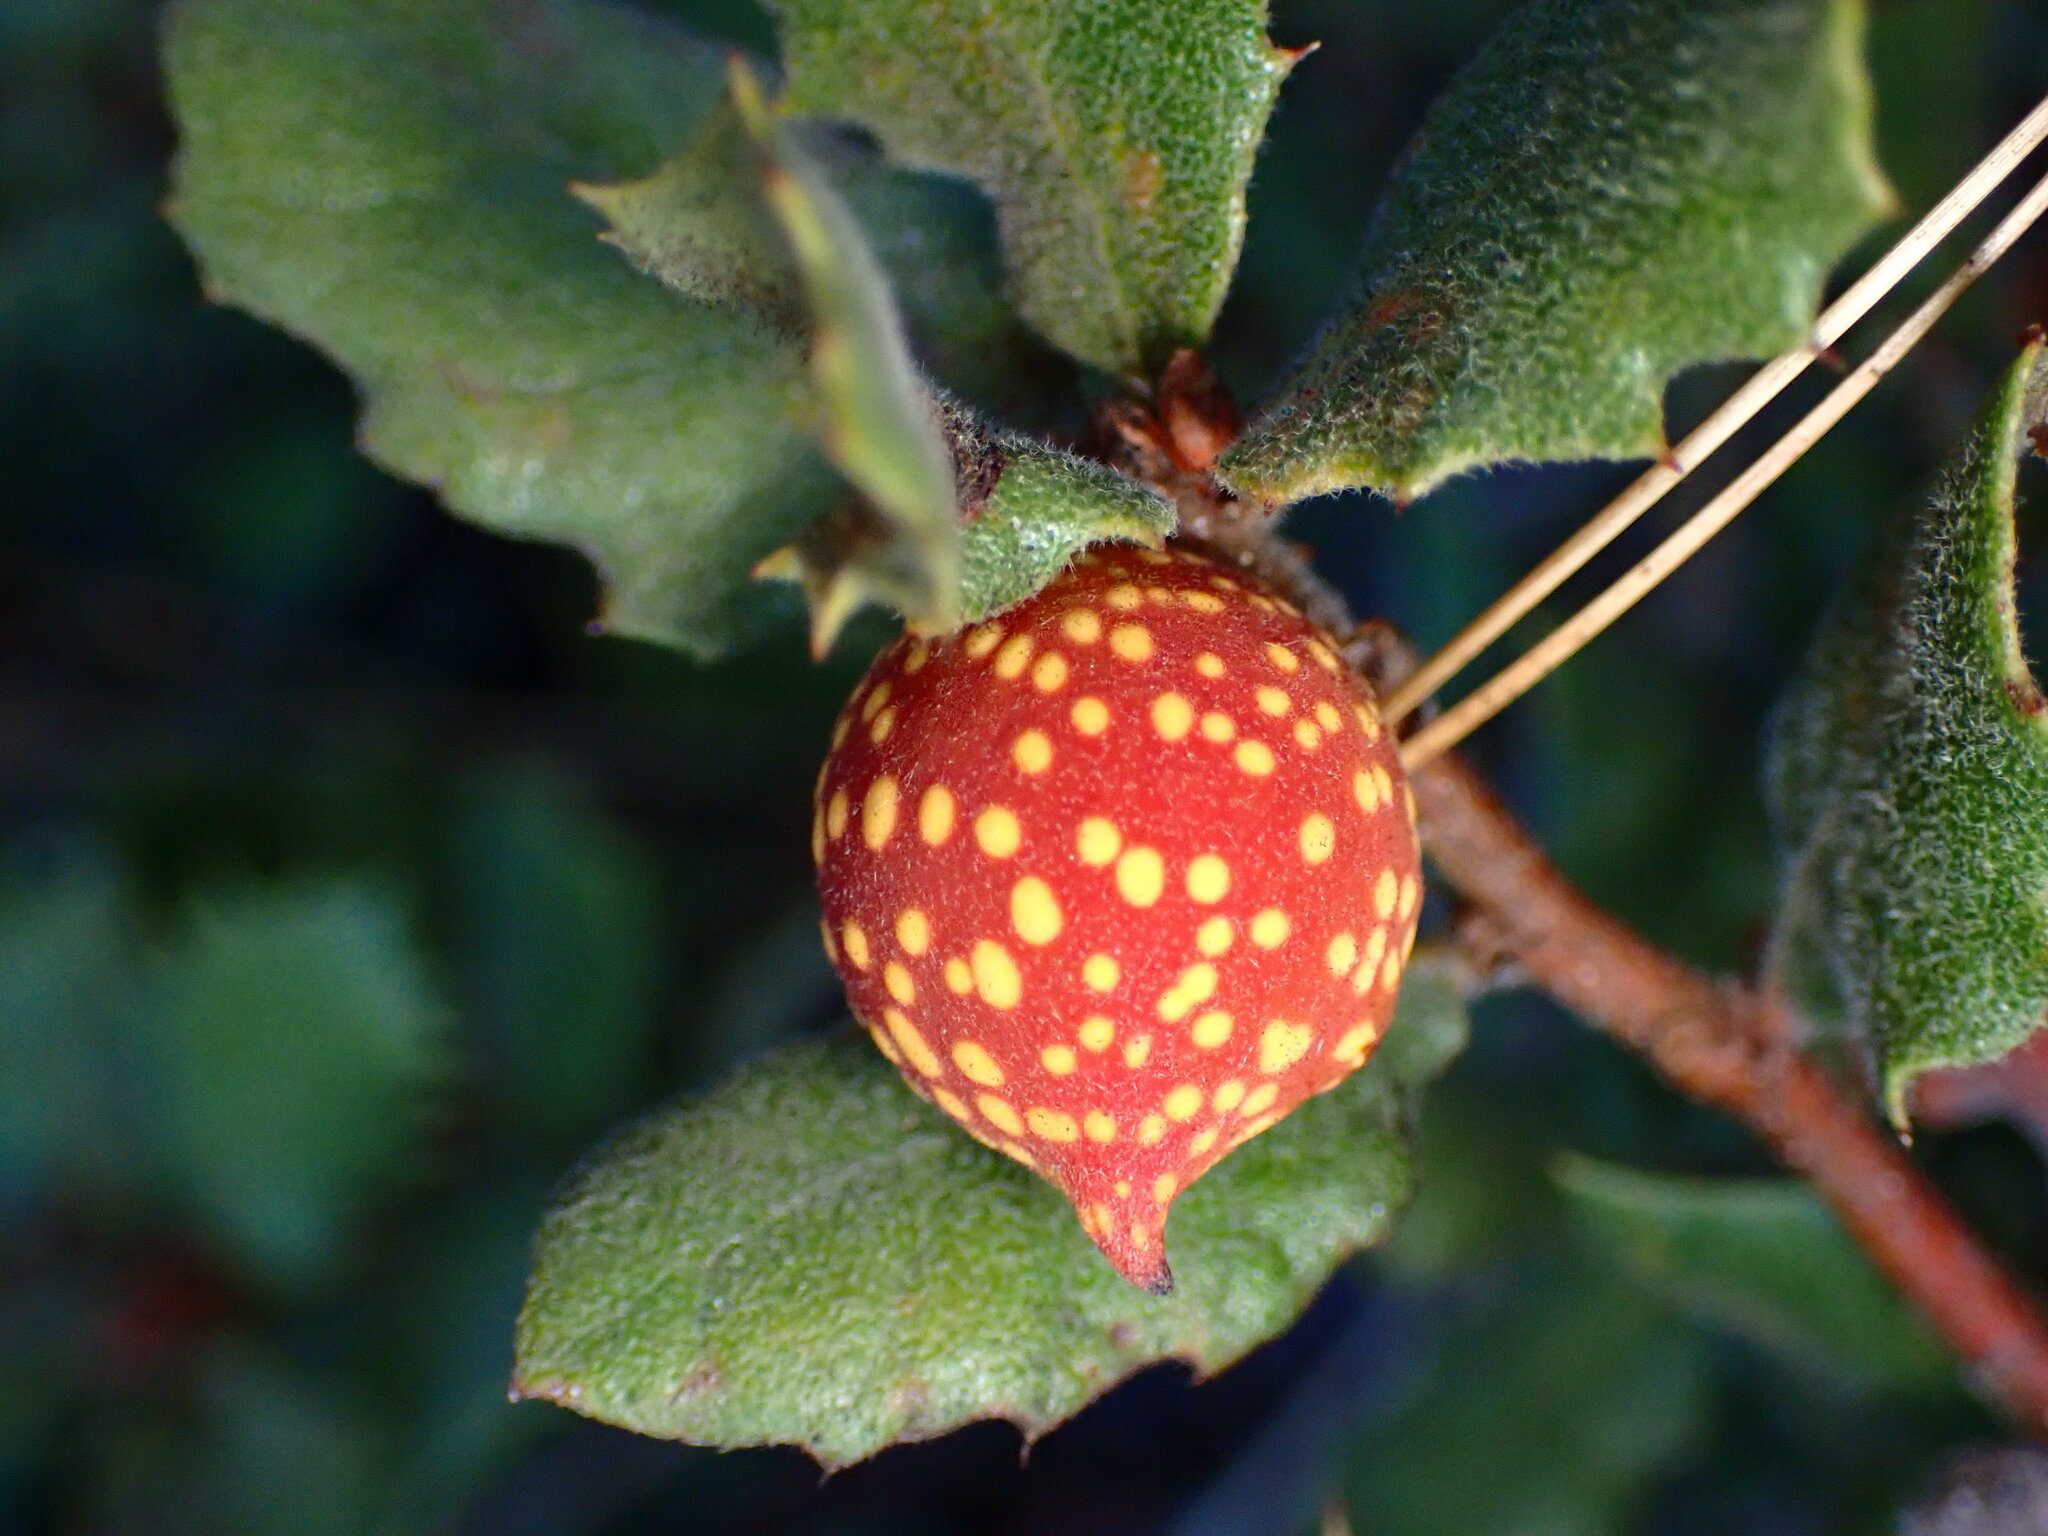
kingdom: Animalia
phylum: Arthropoda
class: Insecta
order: Hymenoptera
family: Cynipidae
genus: Burnettweldia
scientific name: Burnettweldia
